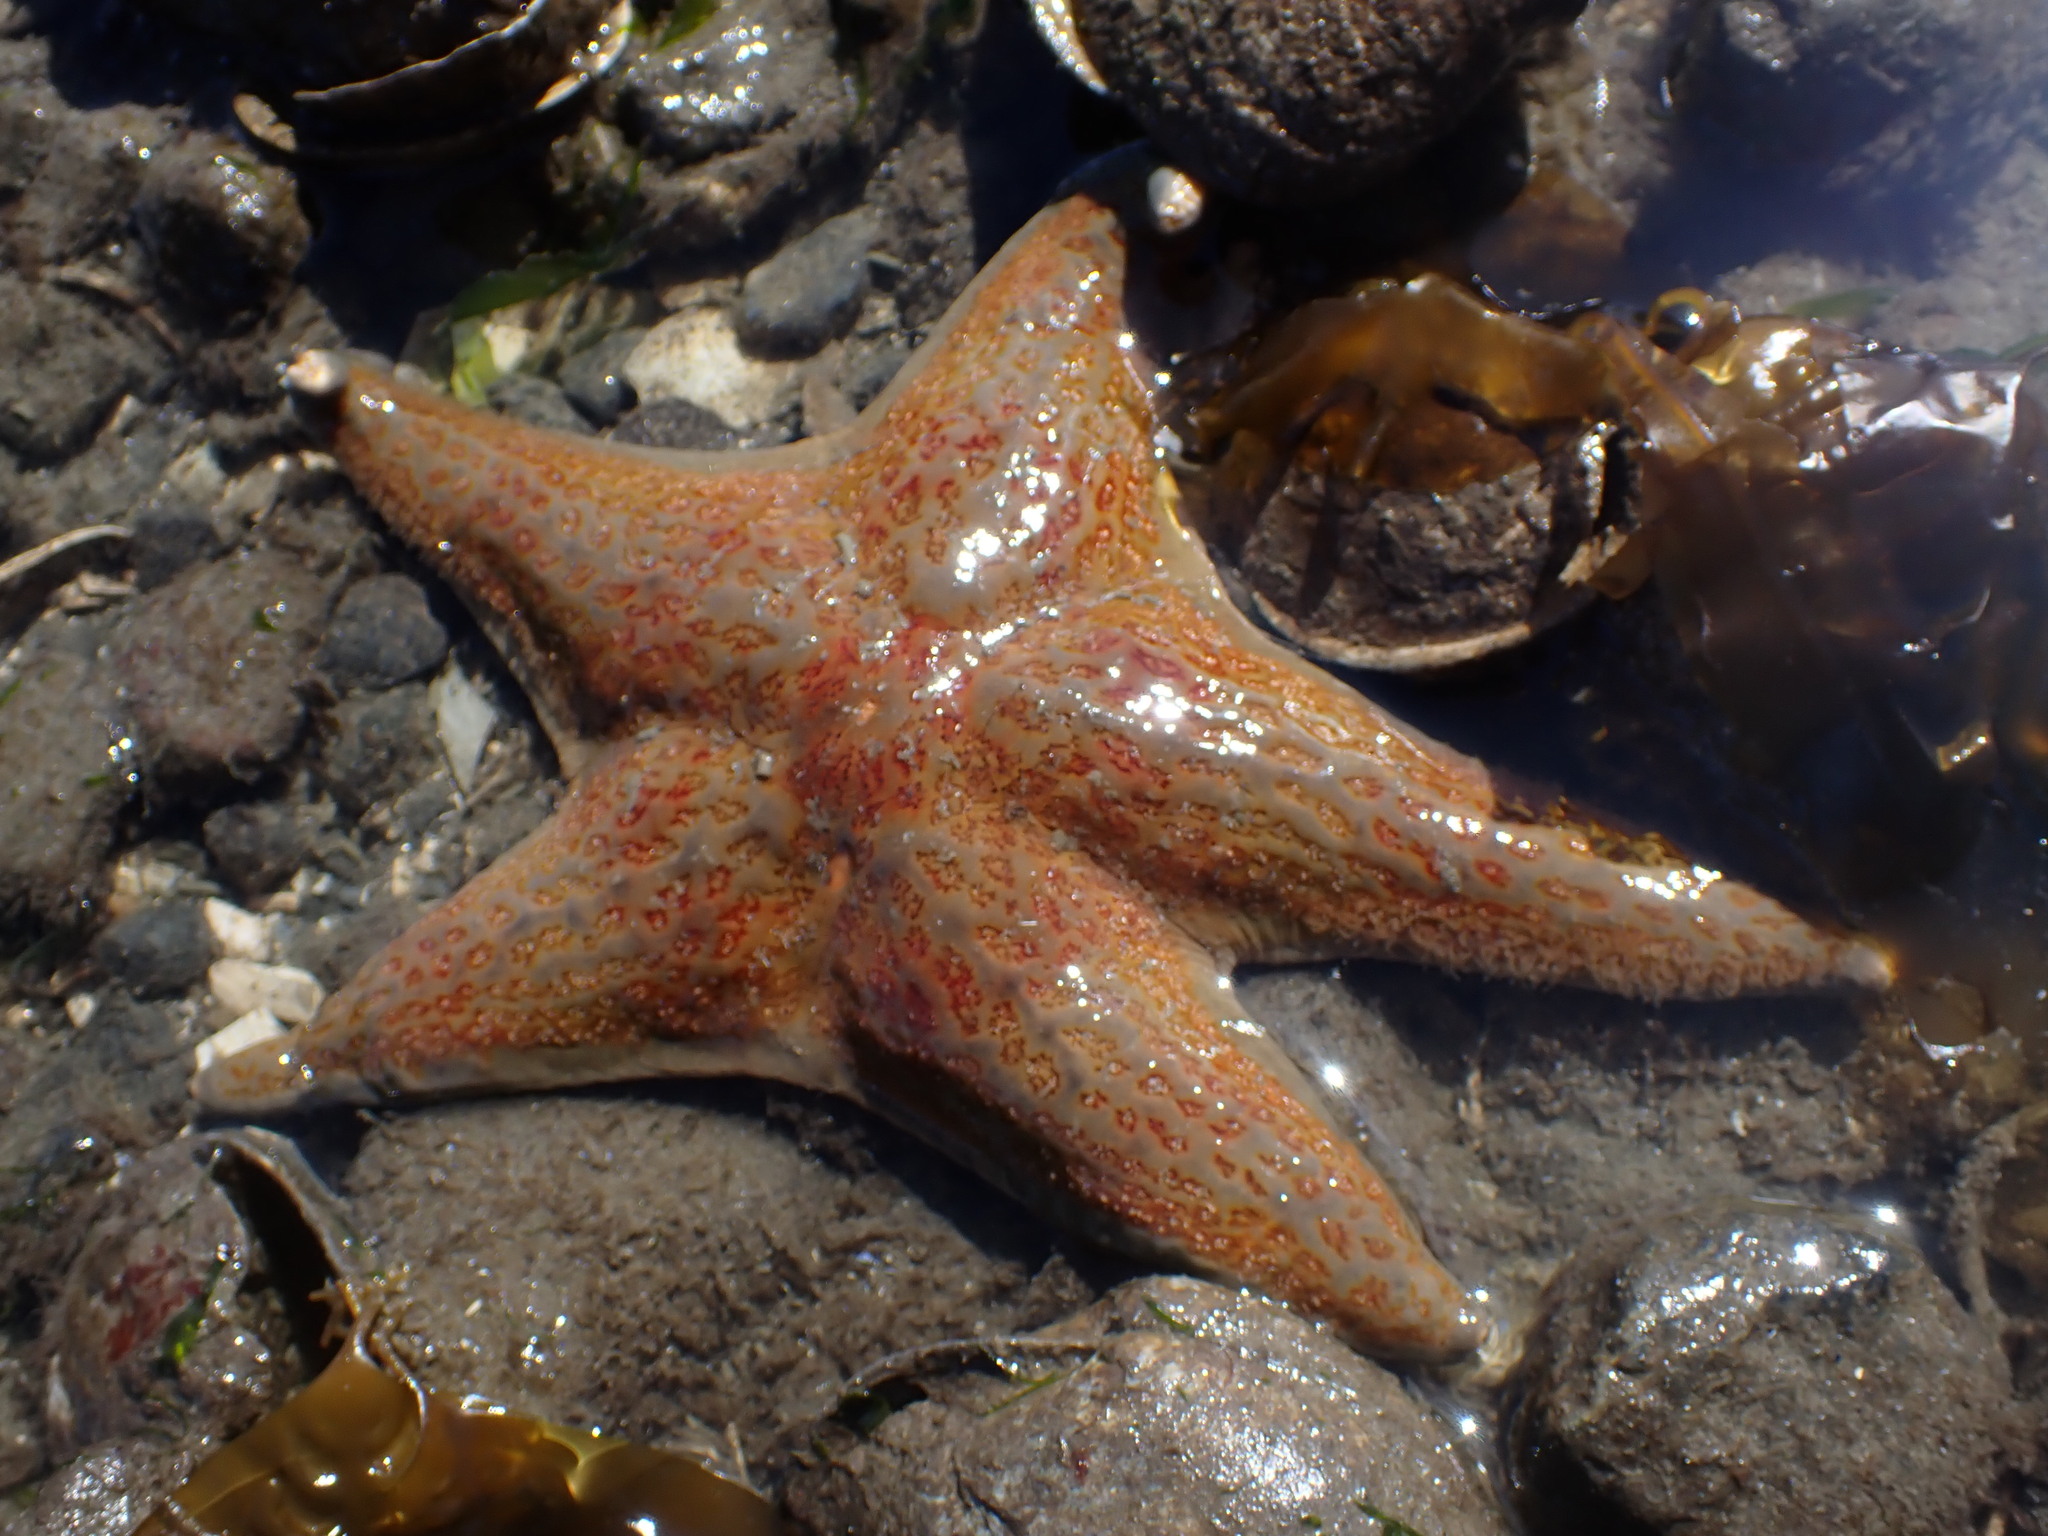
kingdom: Animalia
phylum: Echinodermata
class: Asteroidea
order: Valvatida
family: Asteropseidae
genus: Dermasterias
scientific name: Dermasterias imbricata
